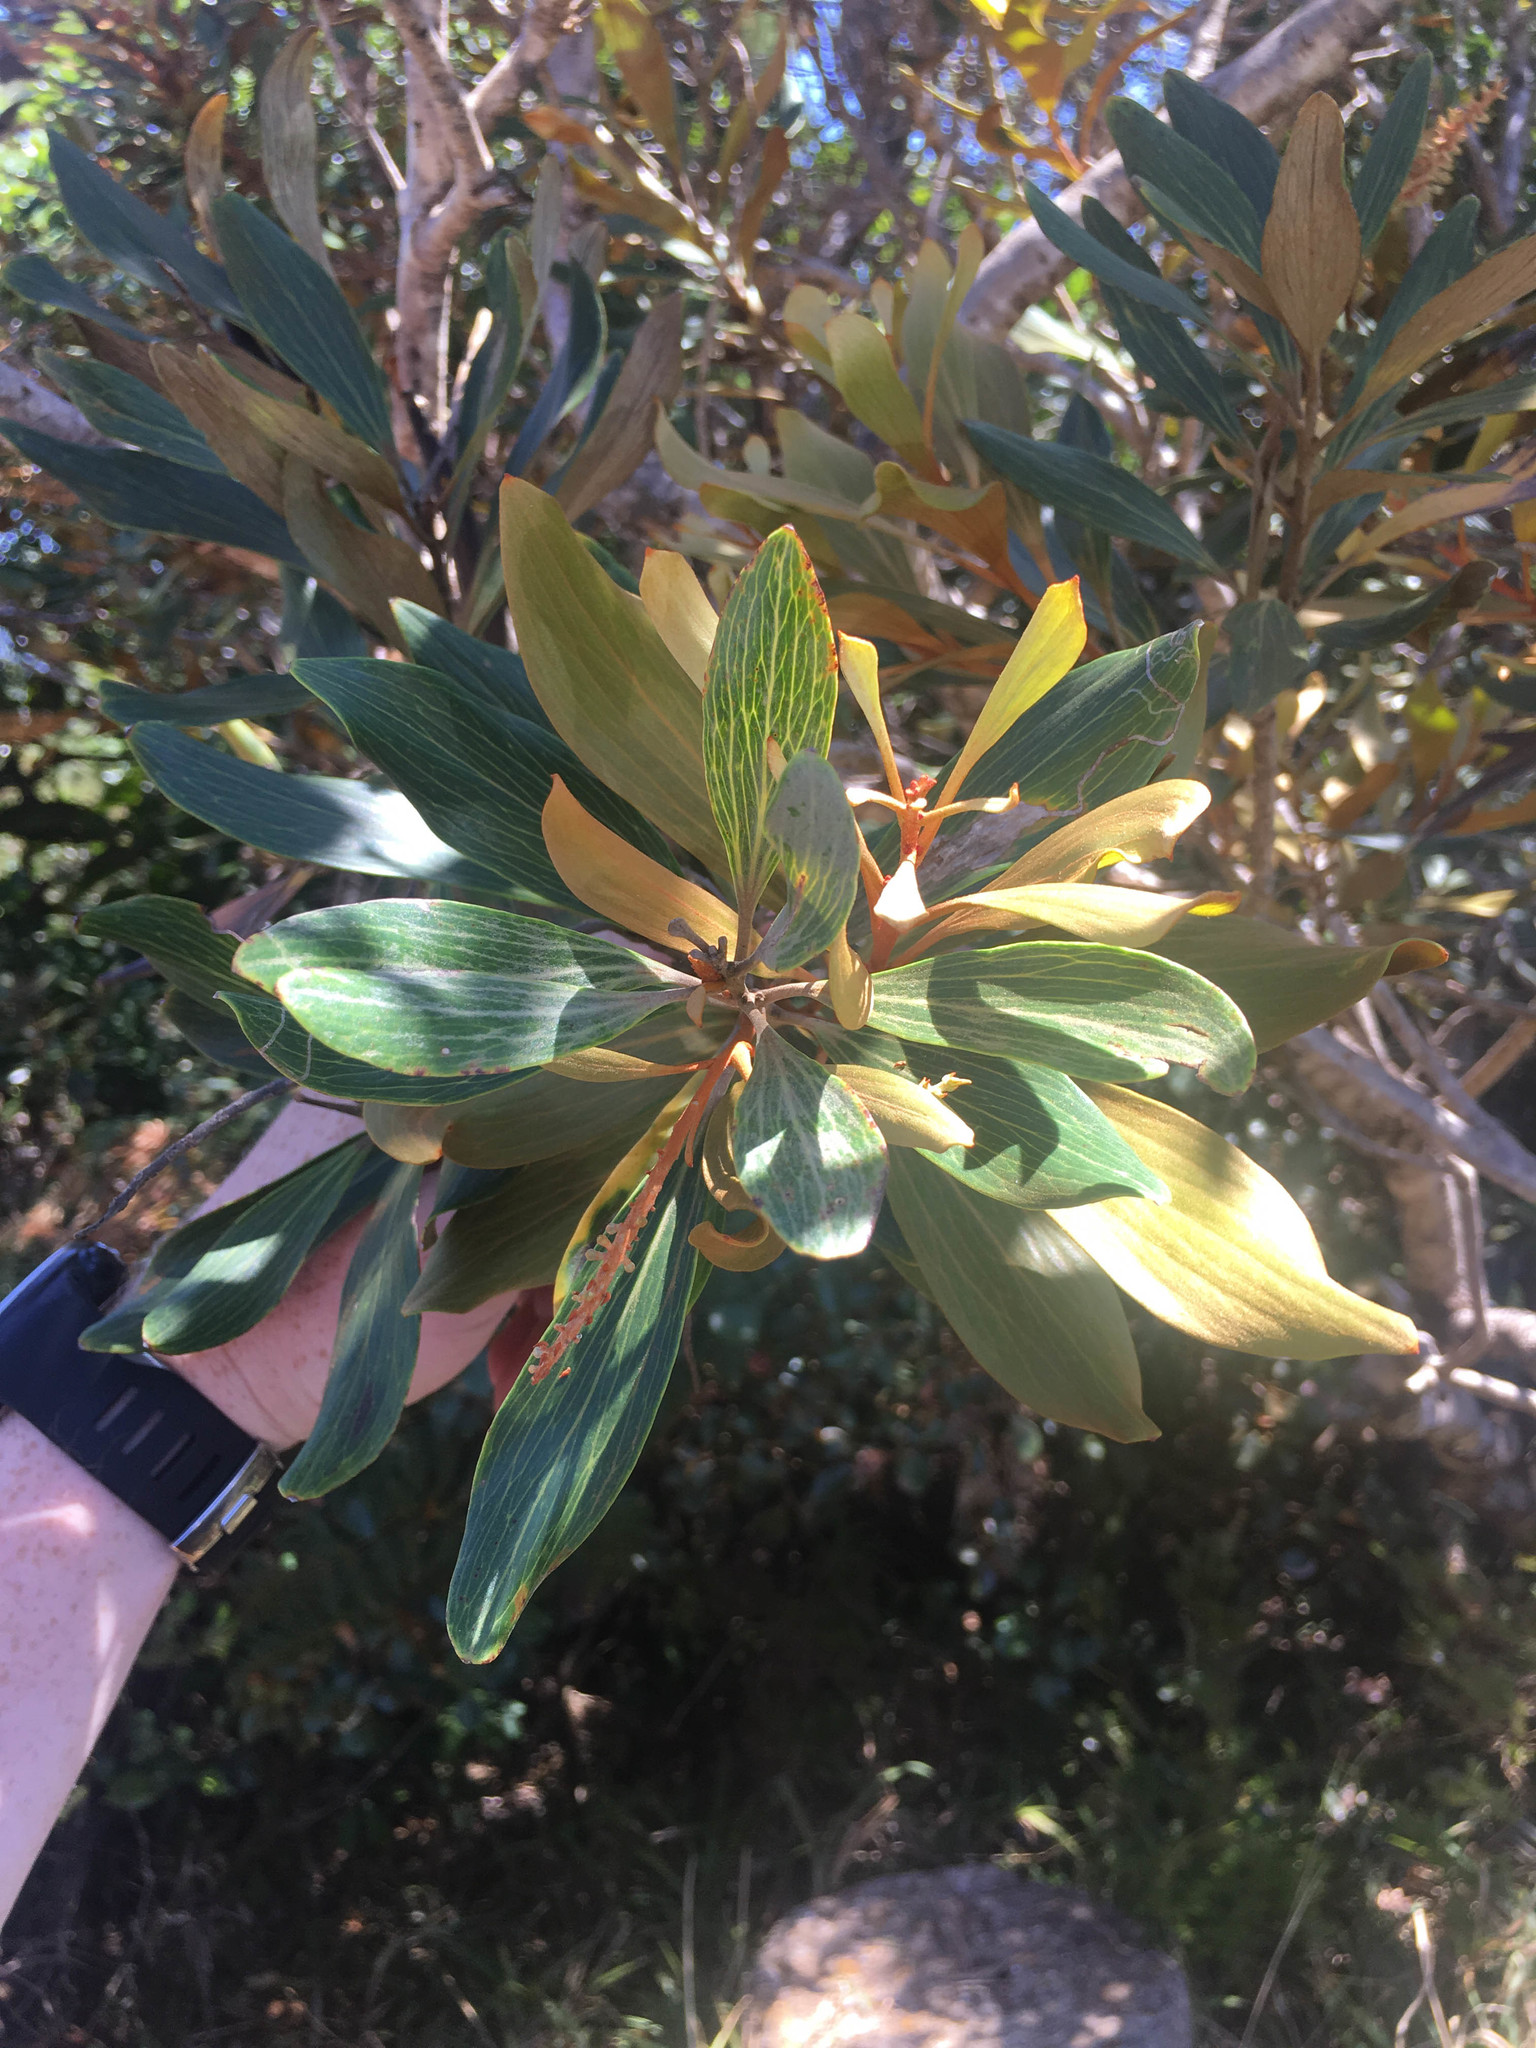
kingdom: Plantae
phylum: Tracheophyta
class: Magnoliopsida
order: Proteales
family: Proteaceae
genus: Grevillea
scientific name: Grevillea exul
